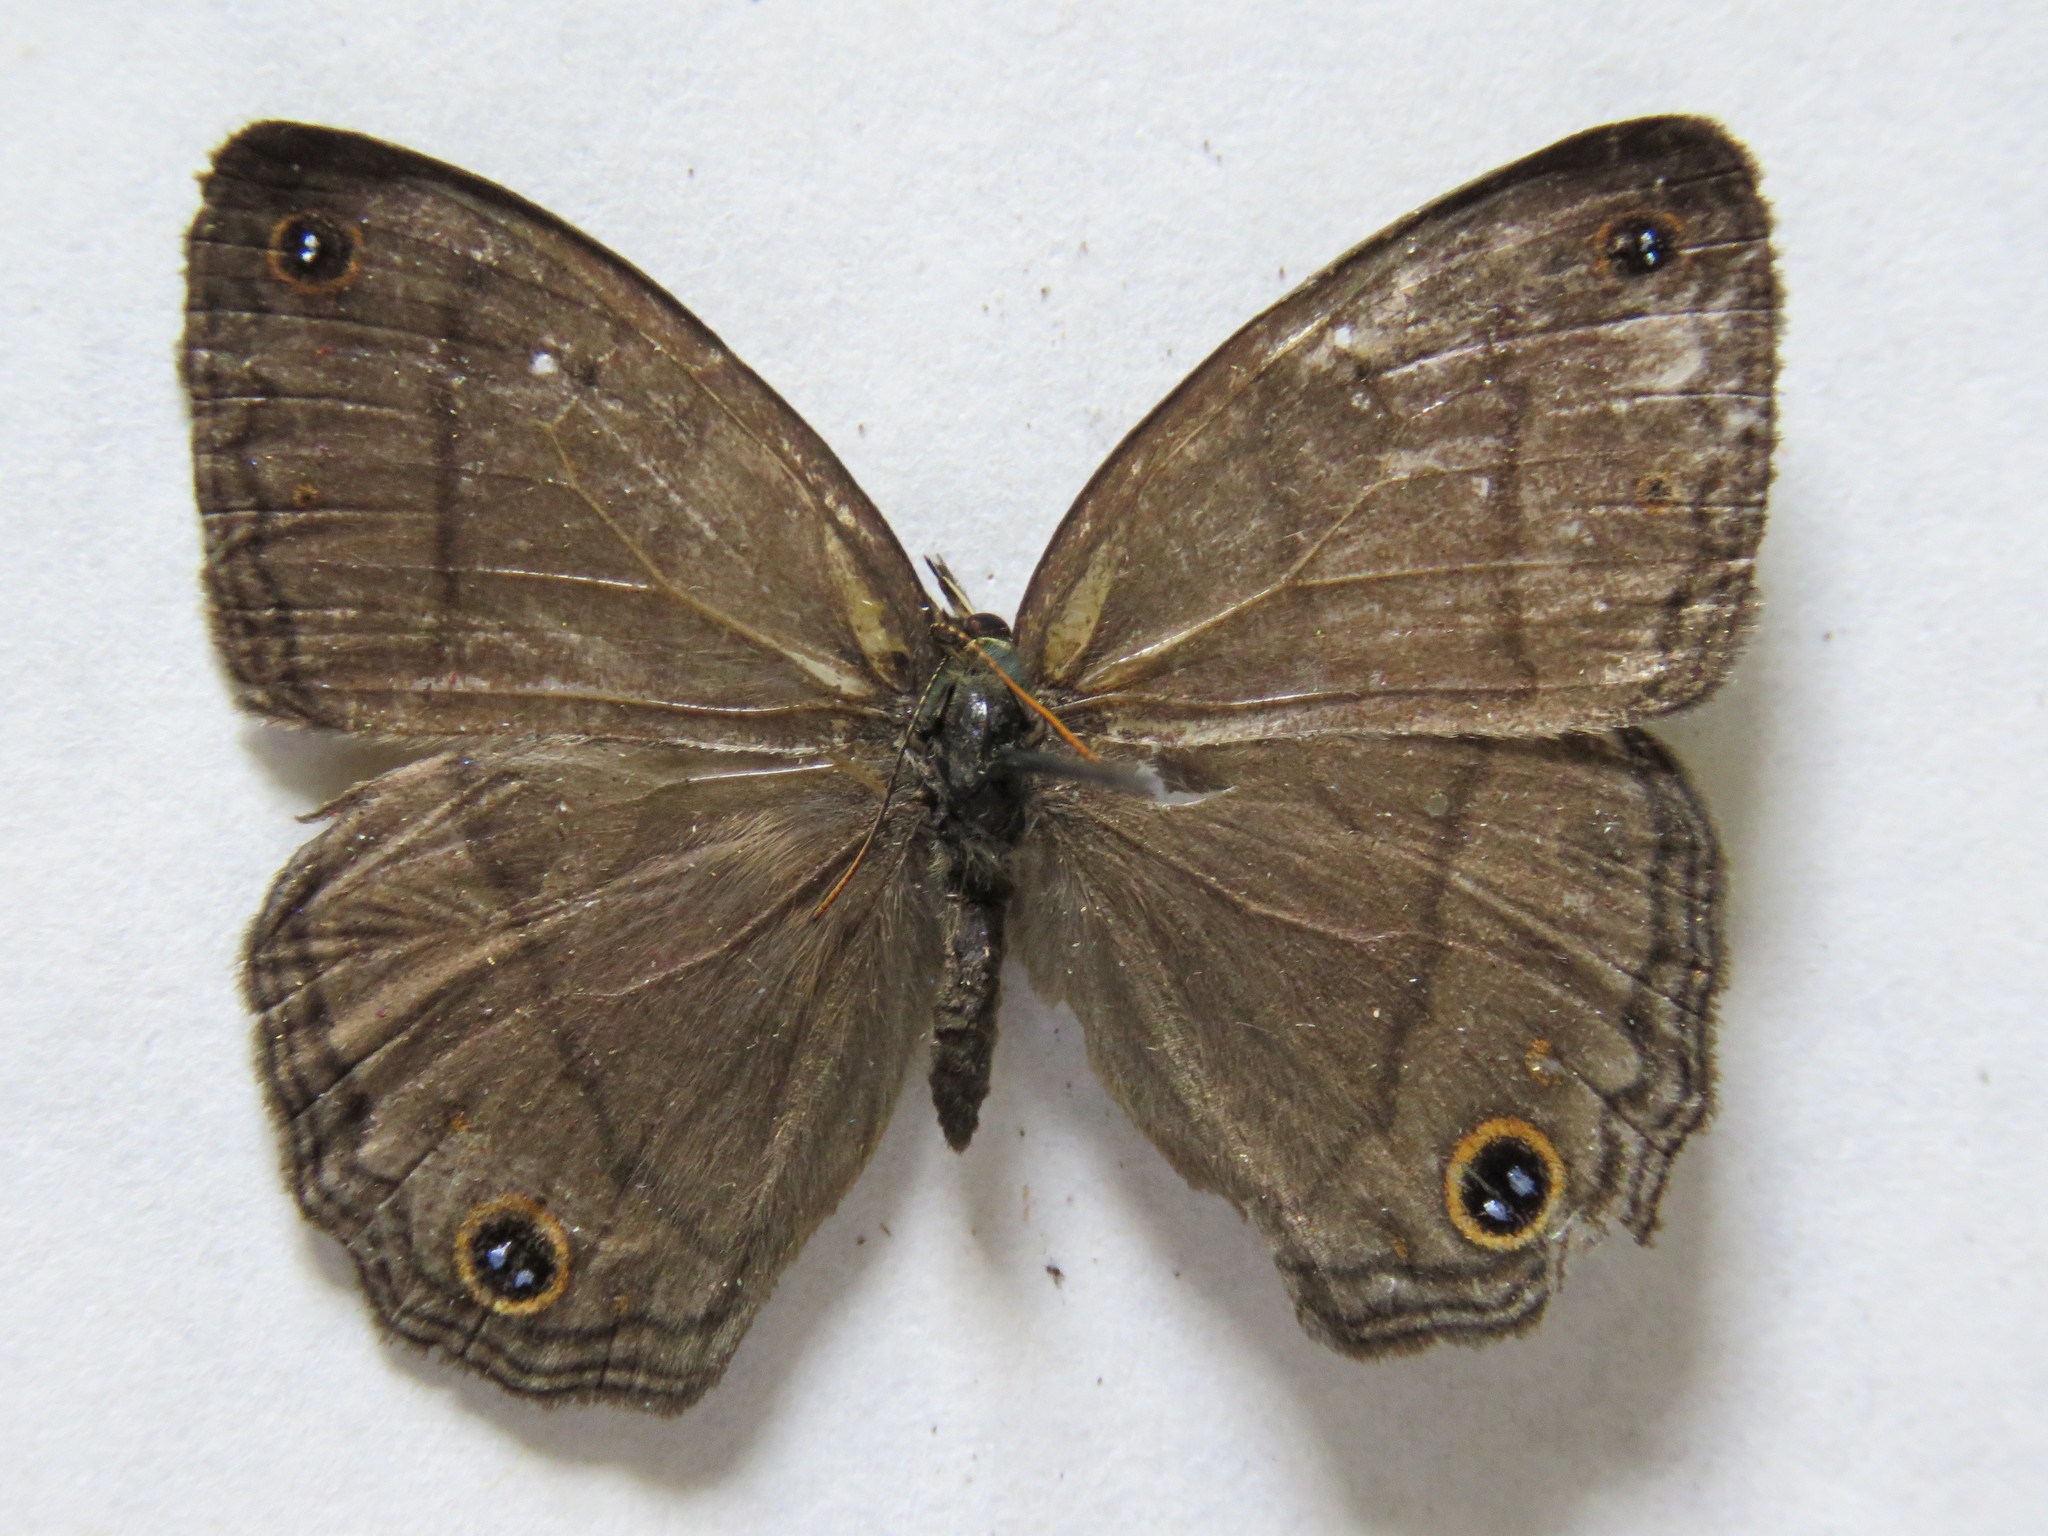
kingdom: Animalia
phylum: Arthropoda
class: Insecta
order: Lepidoptera
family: Nymphalidae
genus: Euptychia
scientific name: Euptychia Cissia pompilia
